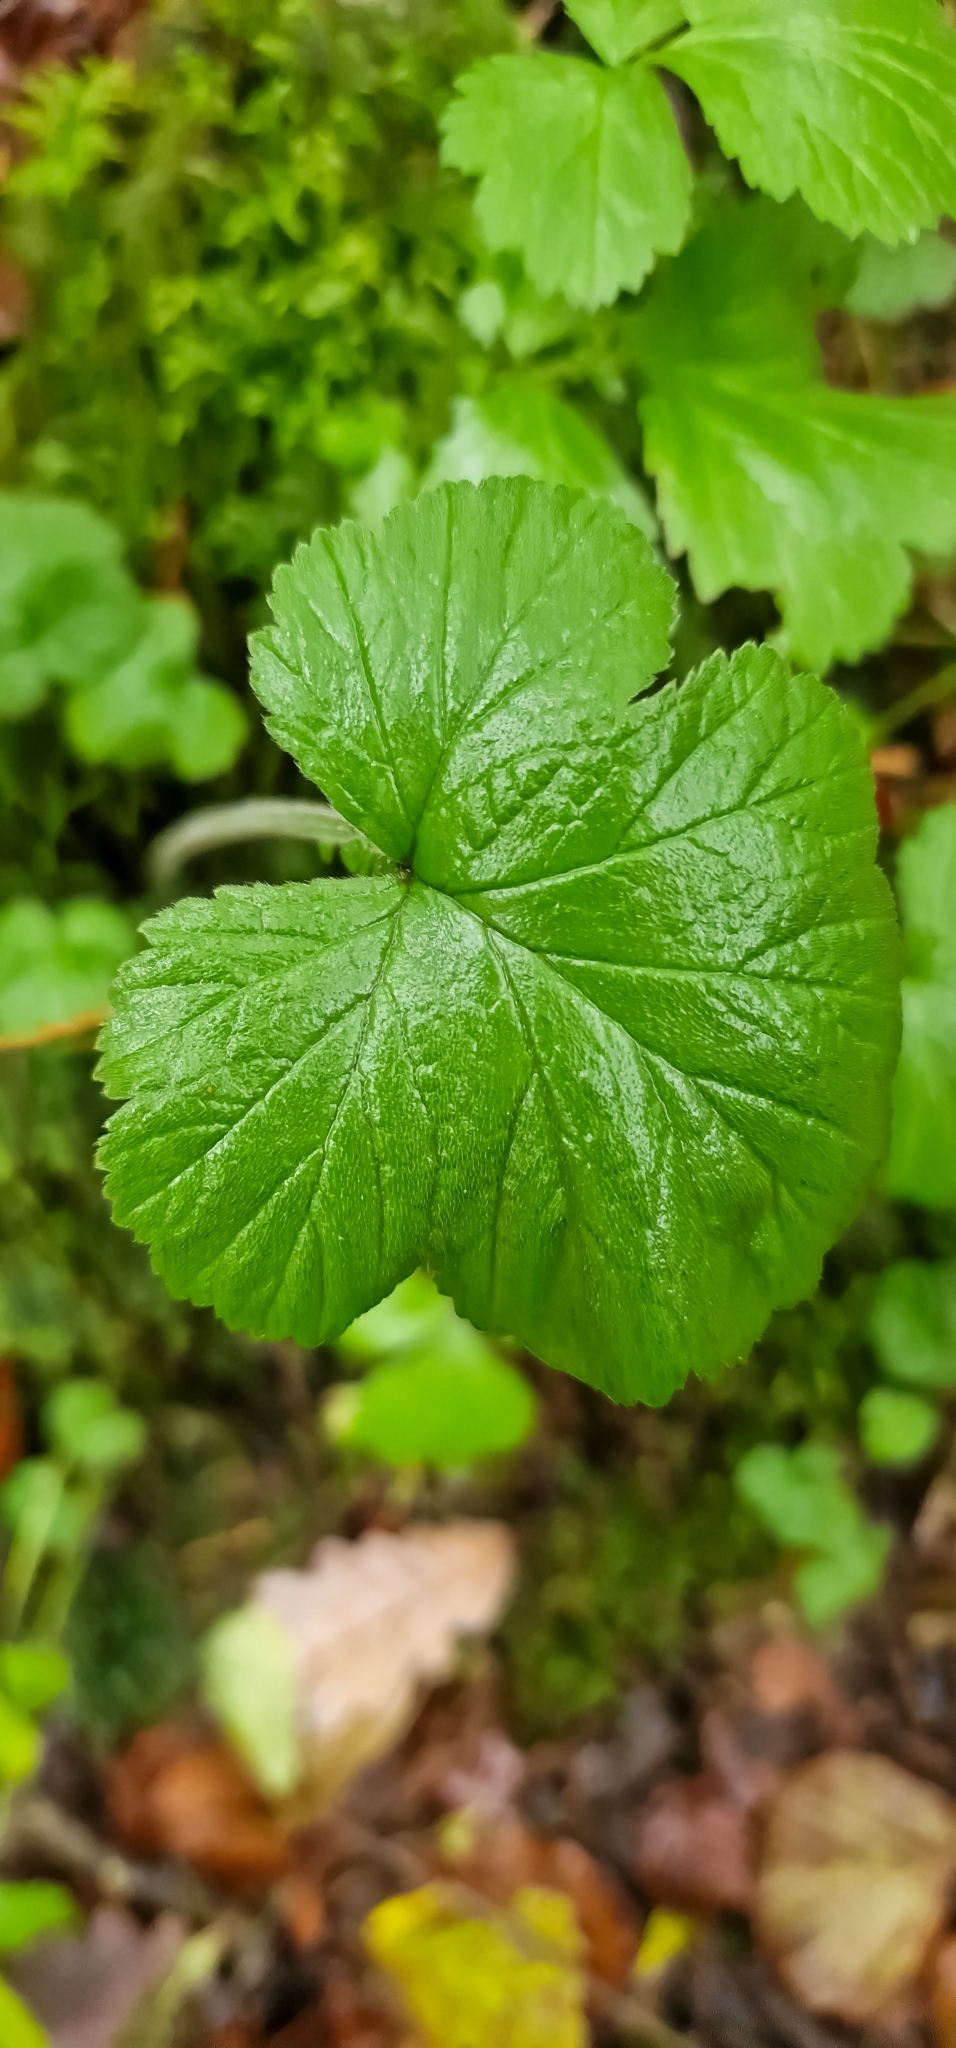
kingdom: Plantae
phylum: Tracheophyta
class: Magnoliopsida
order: Rosales
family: Rosaceae
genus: Geum
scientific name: Geum urbanum
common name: Wood avens
